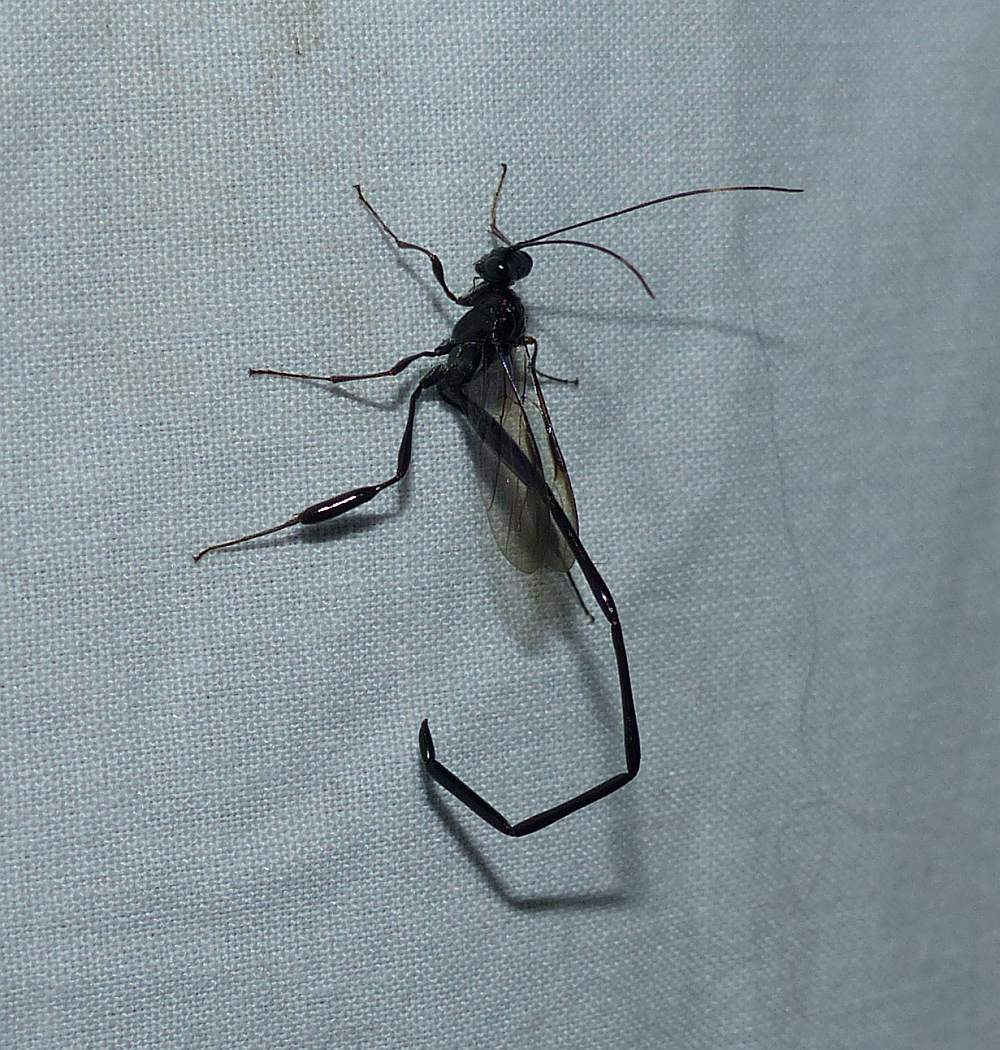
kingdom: Animalia
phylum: Arthropoda
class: Insecta
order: Hymenoptera
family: Pelecinidae
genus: Pelecinus
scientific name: Pelecinus polyturator
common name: American pelecinid wasp
